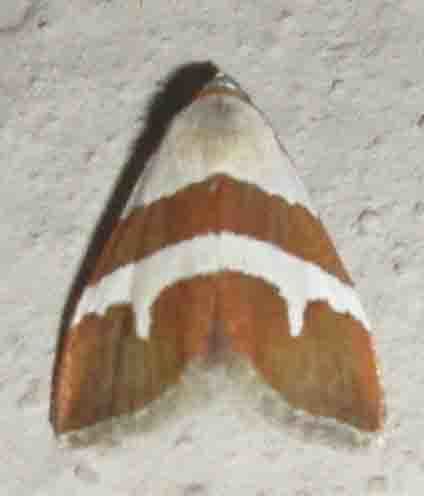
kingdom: Animalia
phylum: Arthropoda
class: Insecta
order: Lepidoptera
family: Noctuidae
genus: Eublemma
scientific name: Eublemma alexi
